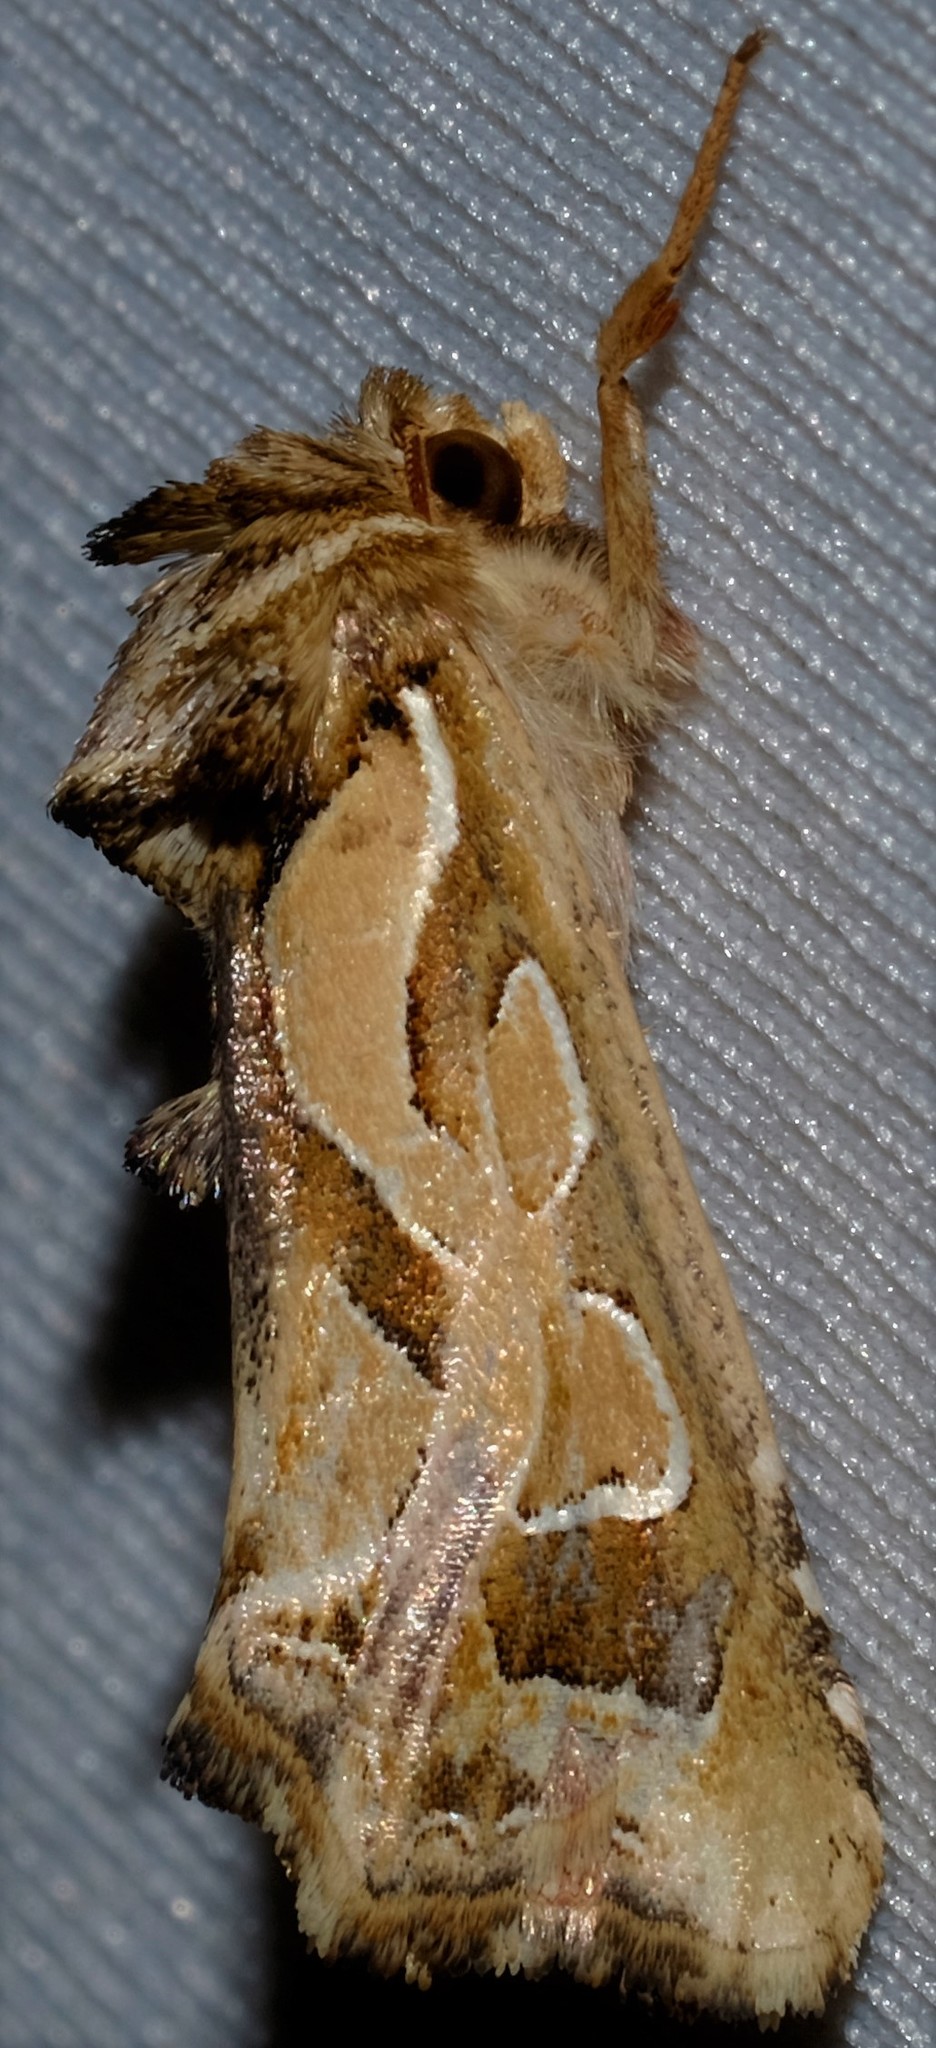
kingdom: Animalia
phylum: Arthropoda
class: Insecta
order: Lepidoptera
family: Noctuidae
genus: Cosmodes
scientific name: Cosmodes elegans
